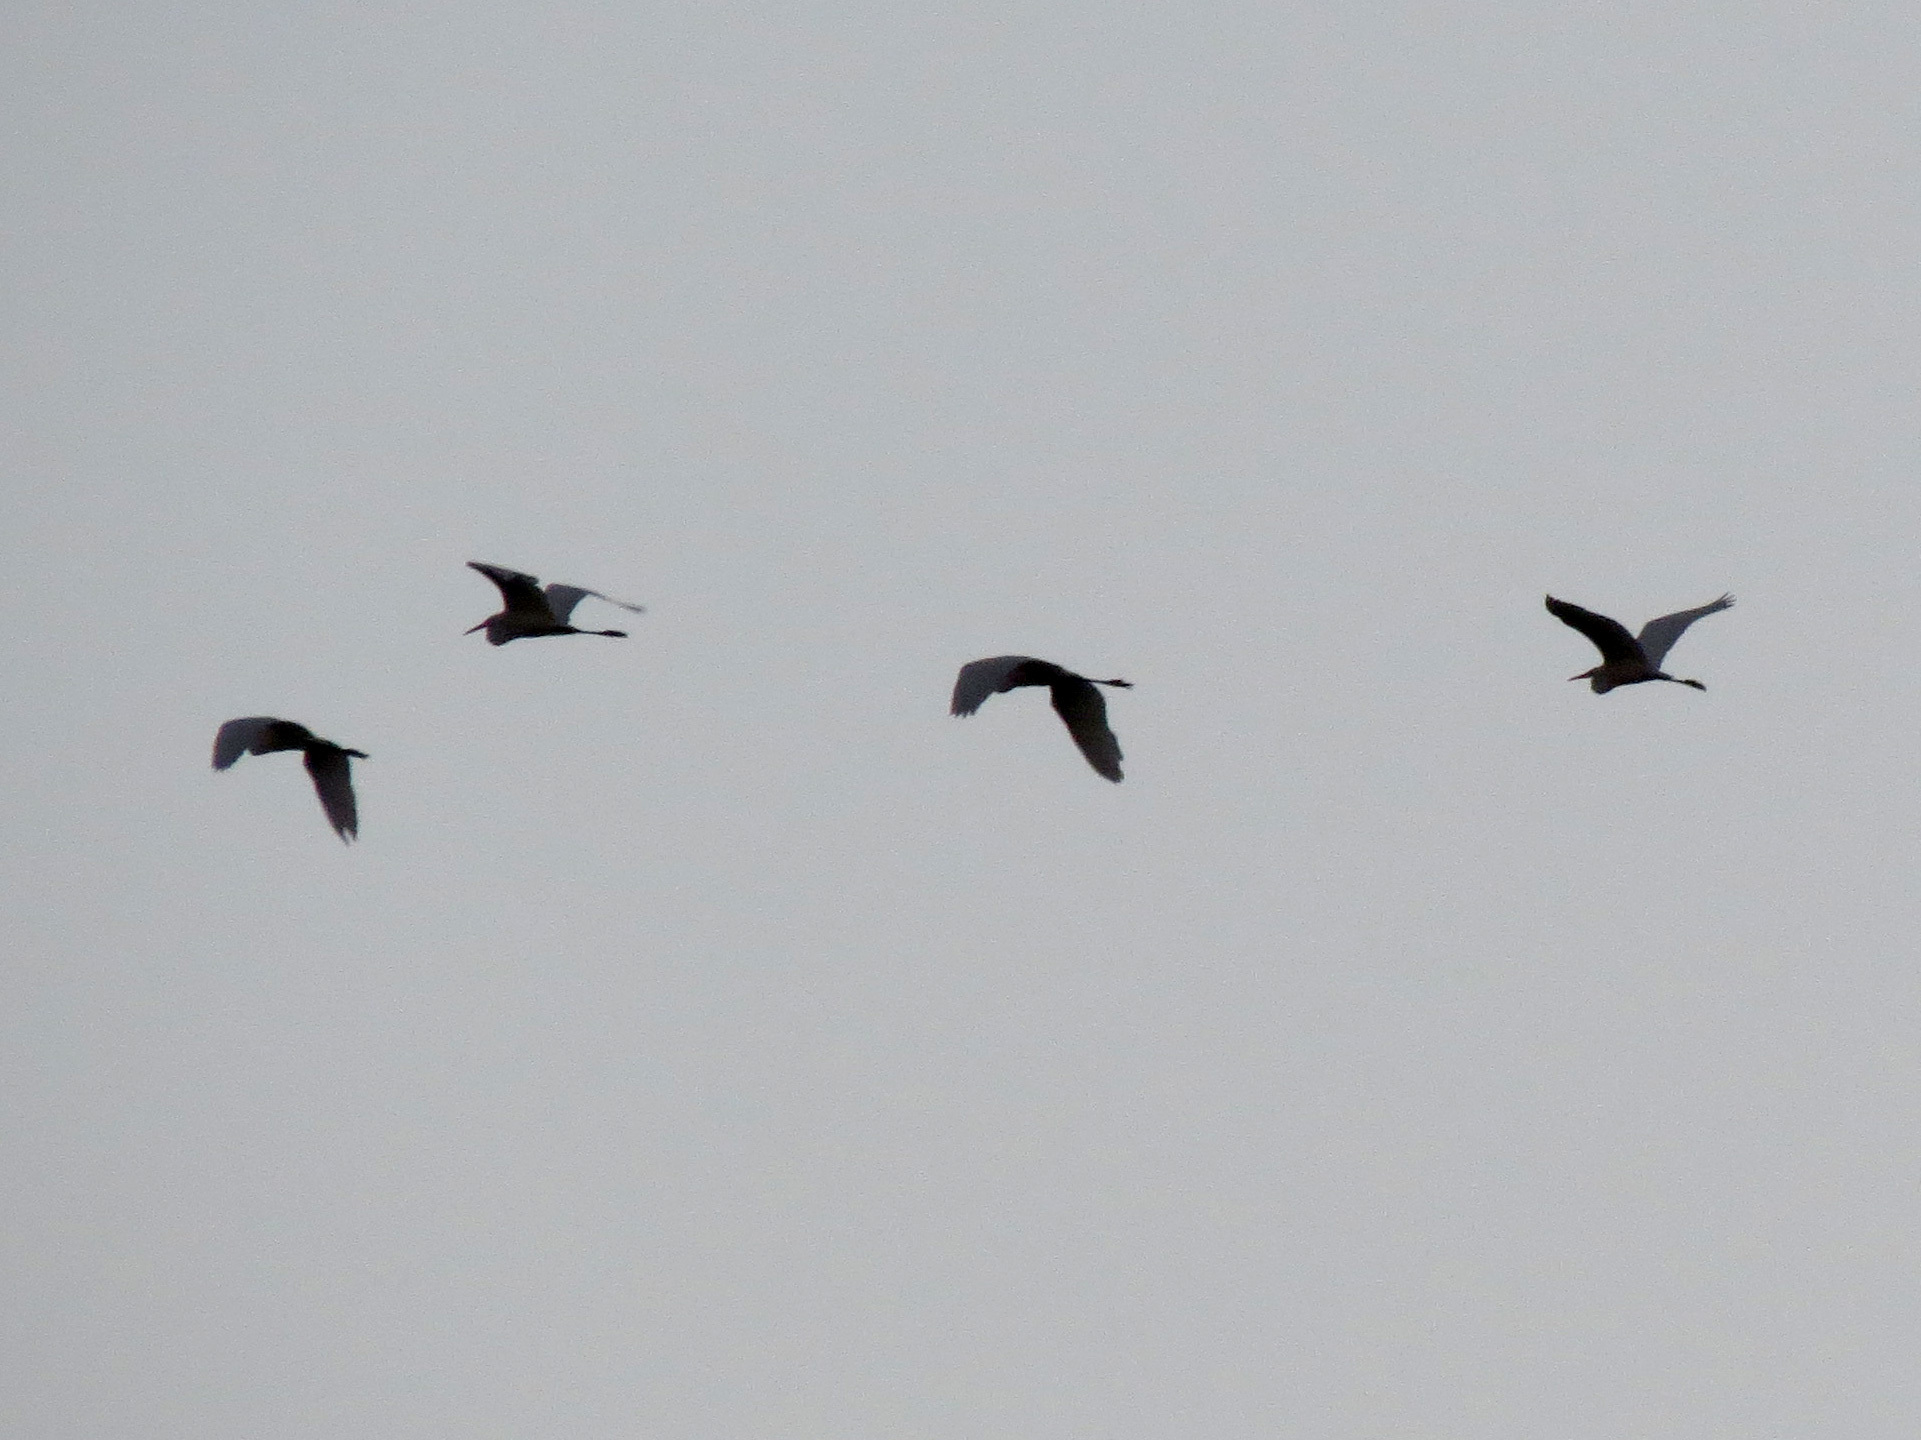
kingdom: Animalia
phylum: Chordata
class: Aves
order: Pelecaniformes
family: Ardeidae
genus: Ardea
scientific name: Ardea herodias
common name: Great blue heron
